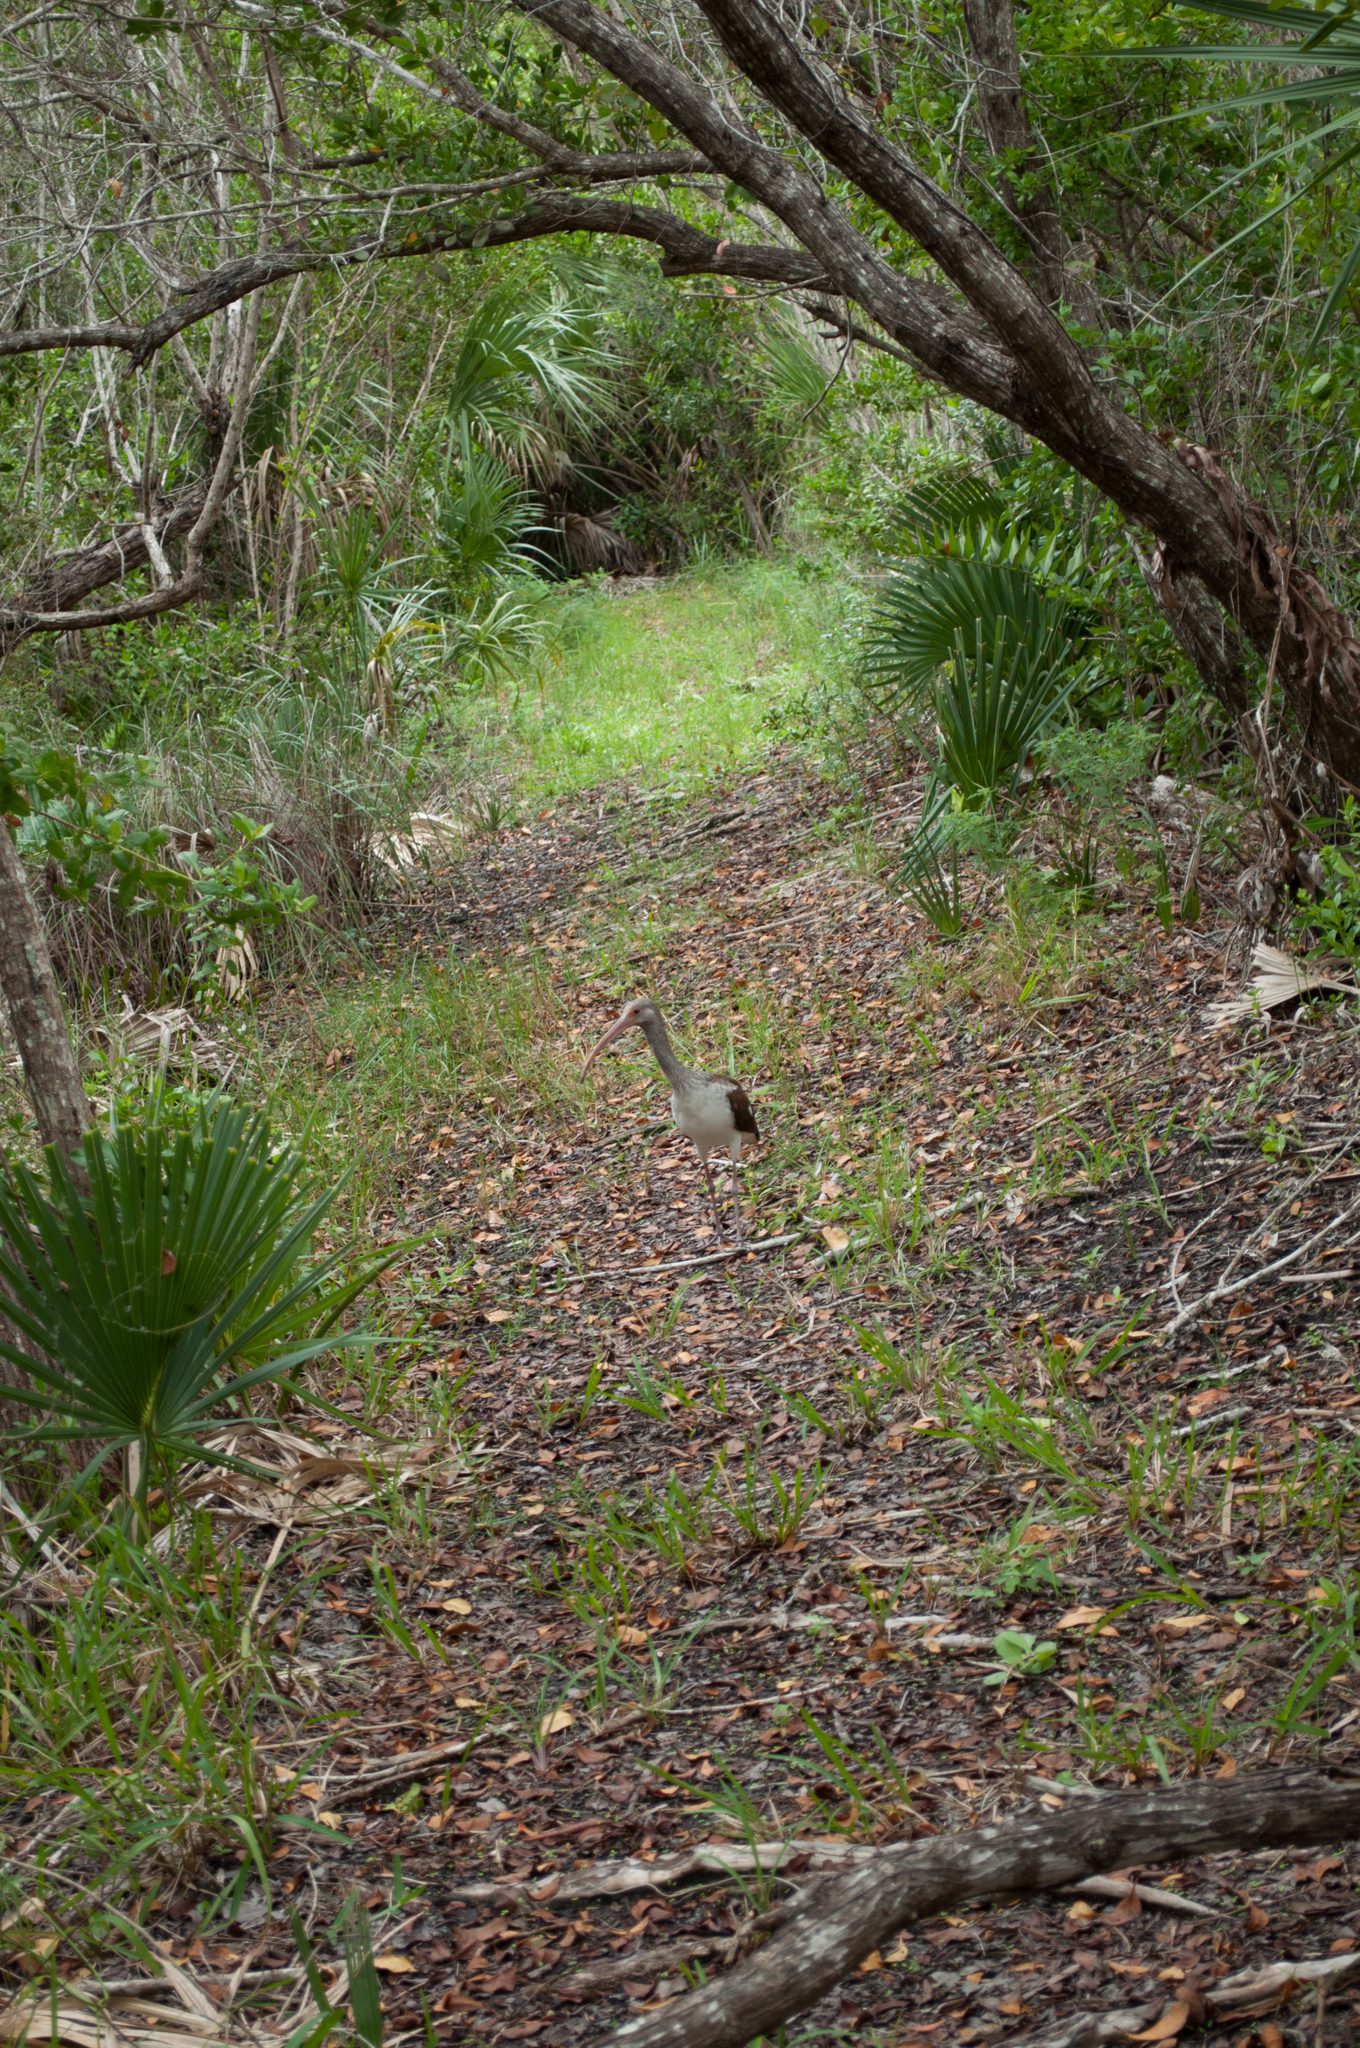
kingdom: Animalia
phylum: Chordata
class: Aves
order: Pelecaniformes
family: Threskiornithidae
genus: Eudocimus
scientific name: Eudocimus albus
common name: White ibis
